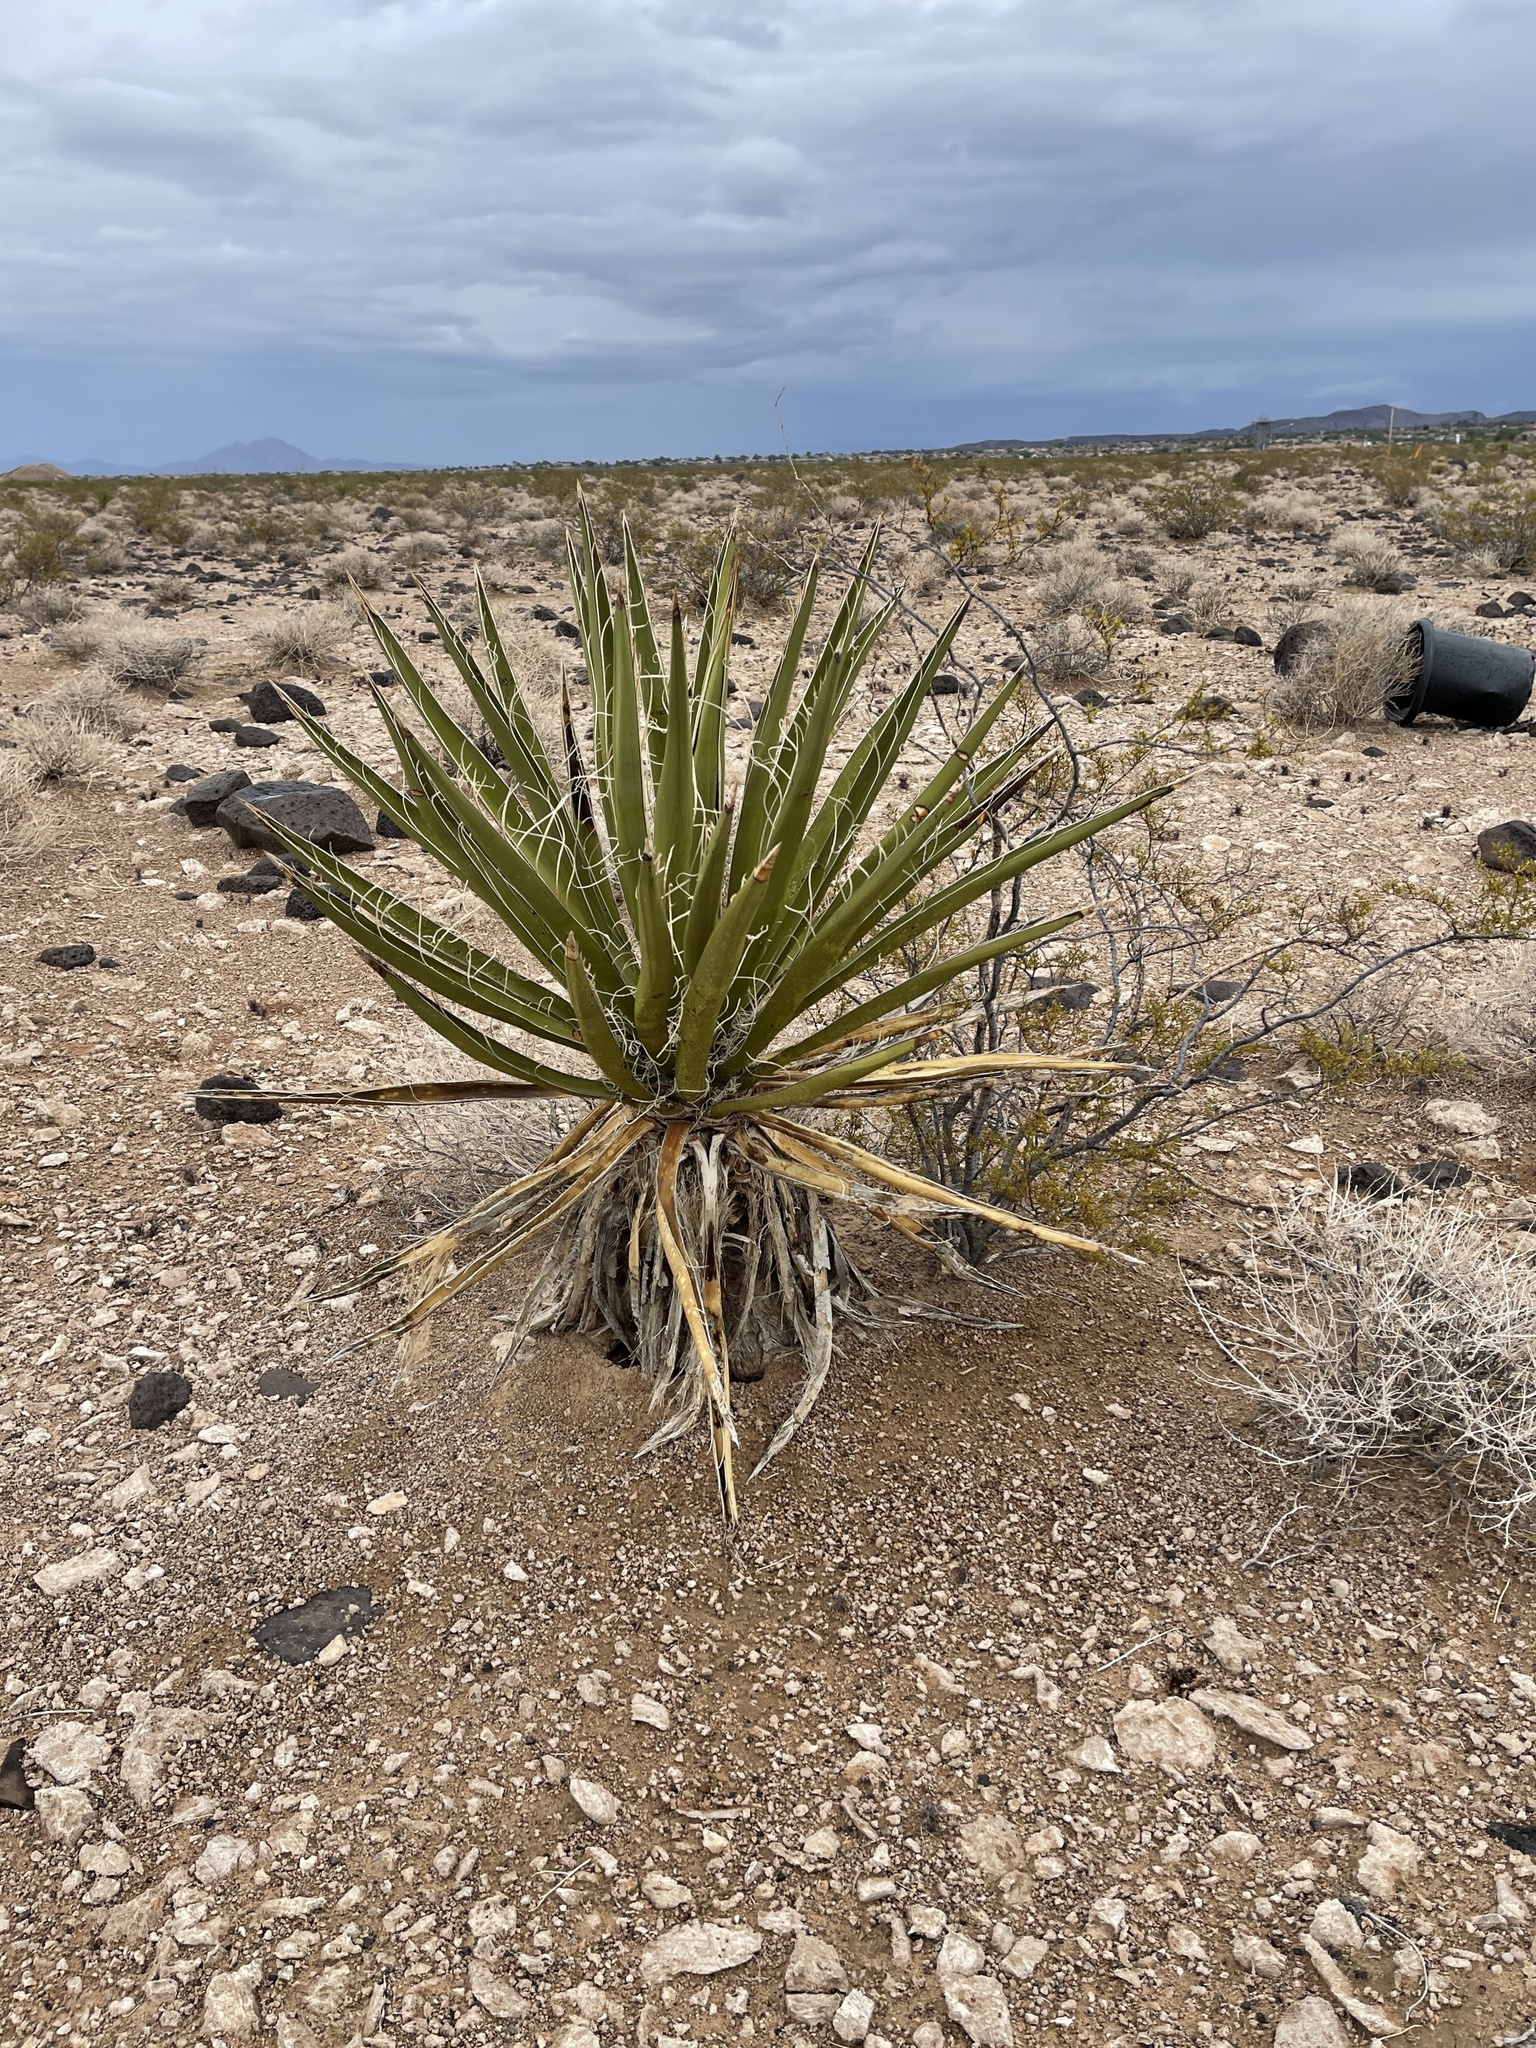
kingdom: Plantae
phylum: Tracheophyta
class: Liliopsida
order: Asparagales
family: Asparagaceae
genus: Yucca
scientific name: Yucca schidigera
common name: Mojave yucca
